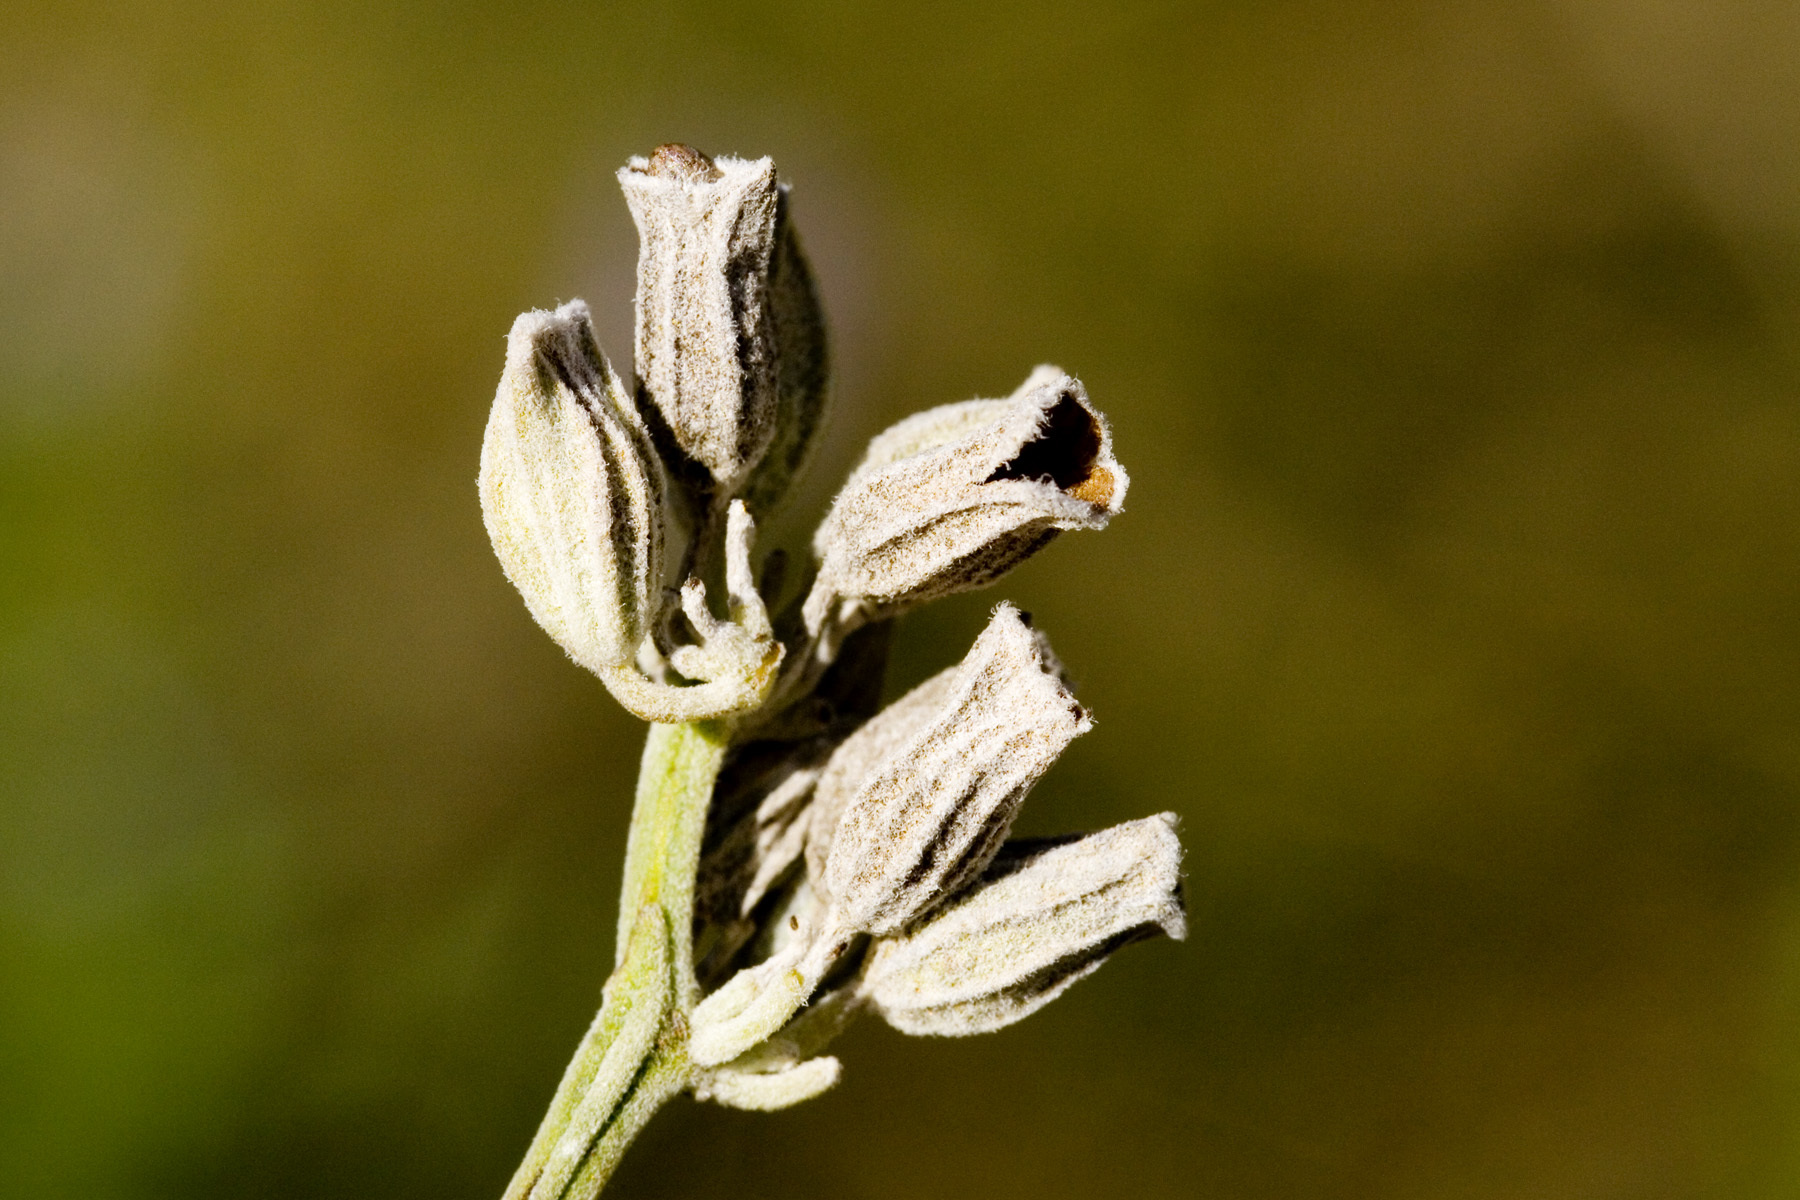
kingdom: Plantae
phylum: Tracheophyta
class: Magnoliopsida
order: Lamiales
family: Lamiaceae
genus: Salvia
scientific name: Salvia farinacea
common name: Mealy sage
